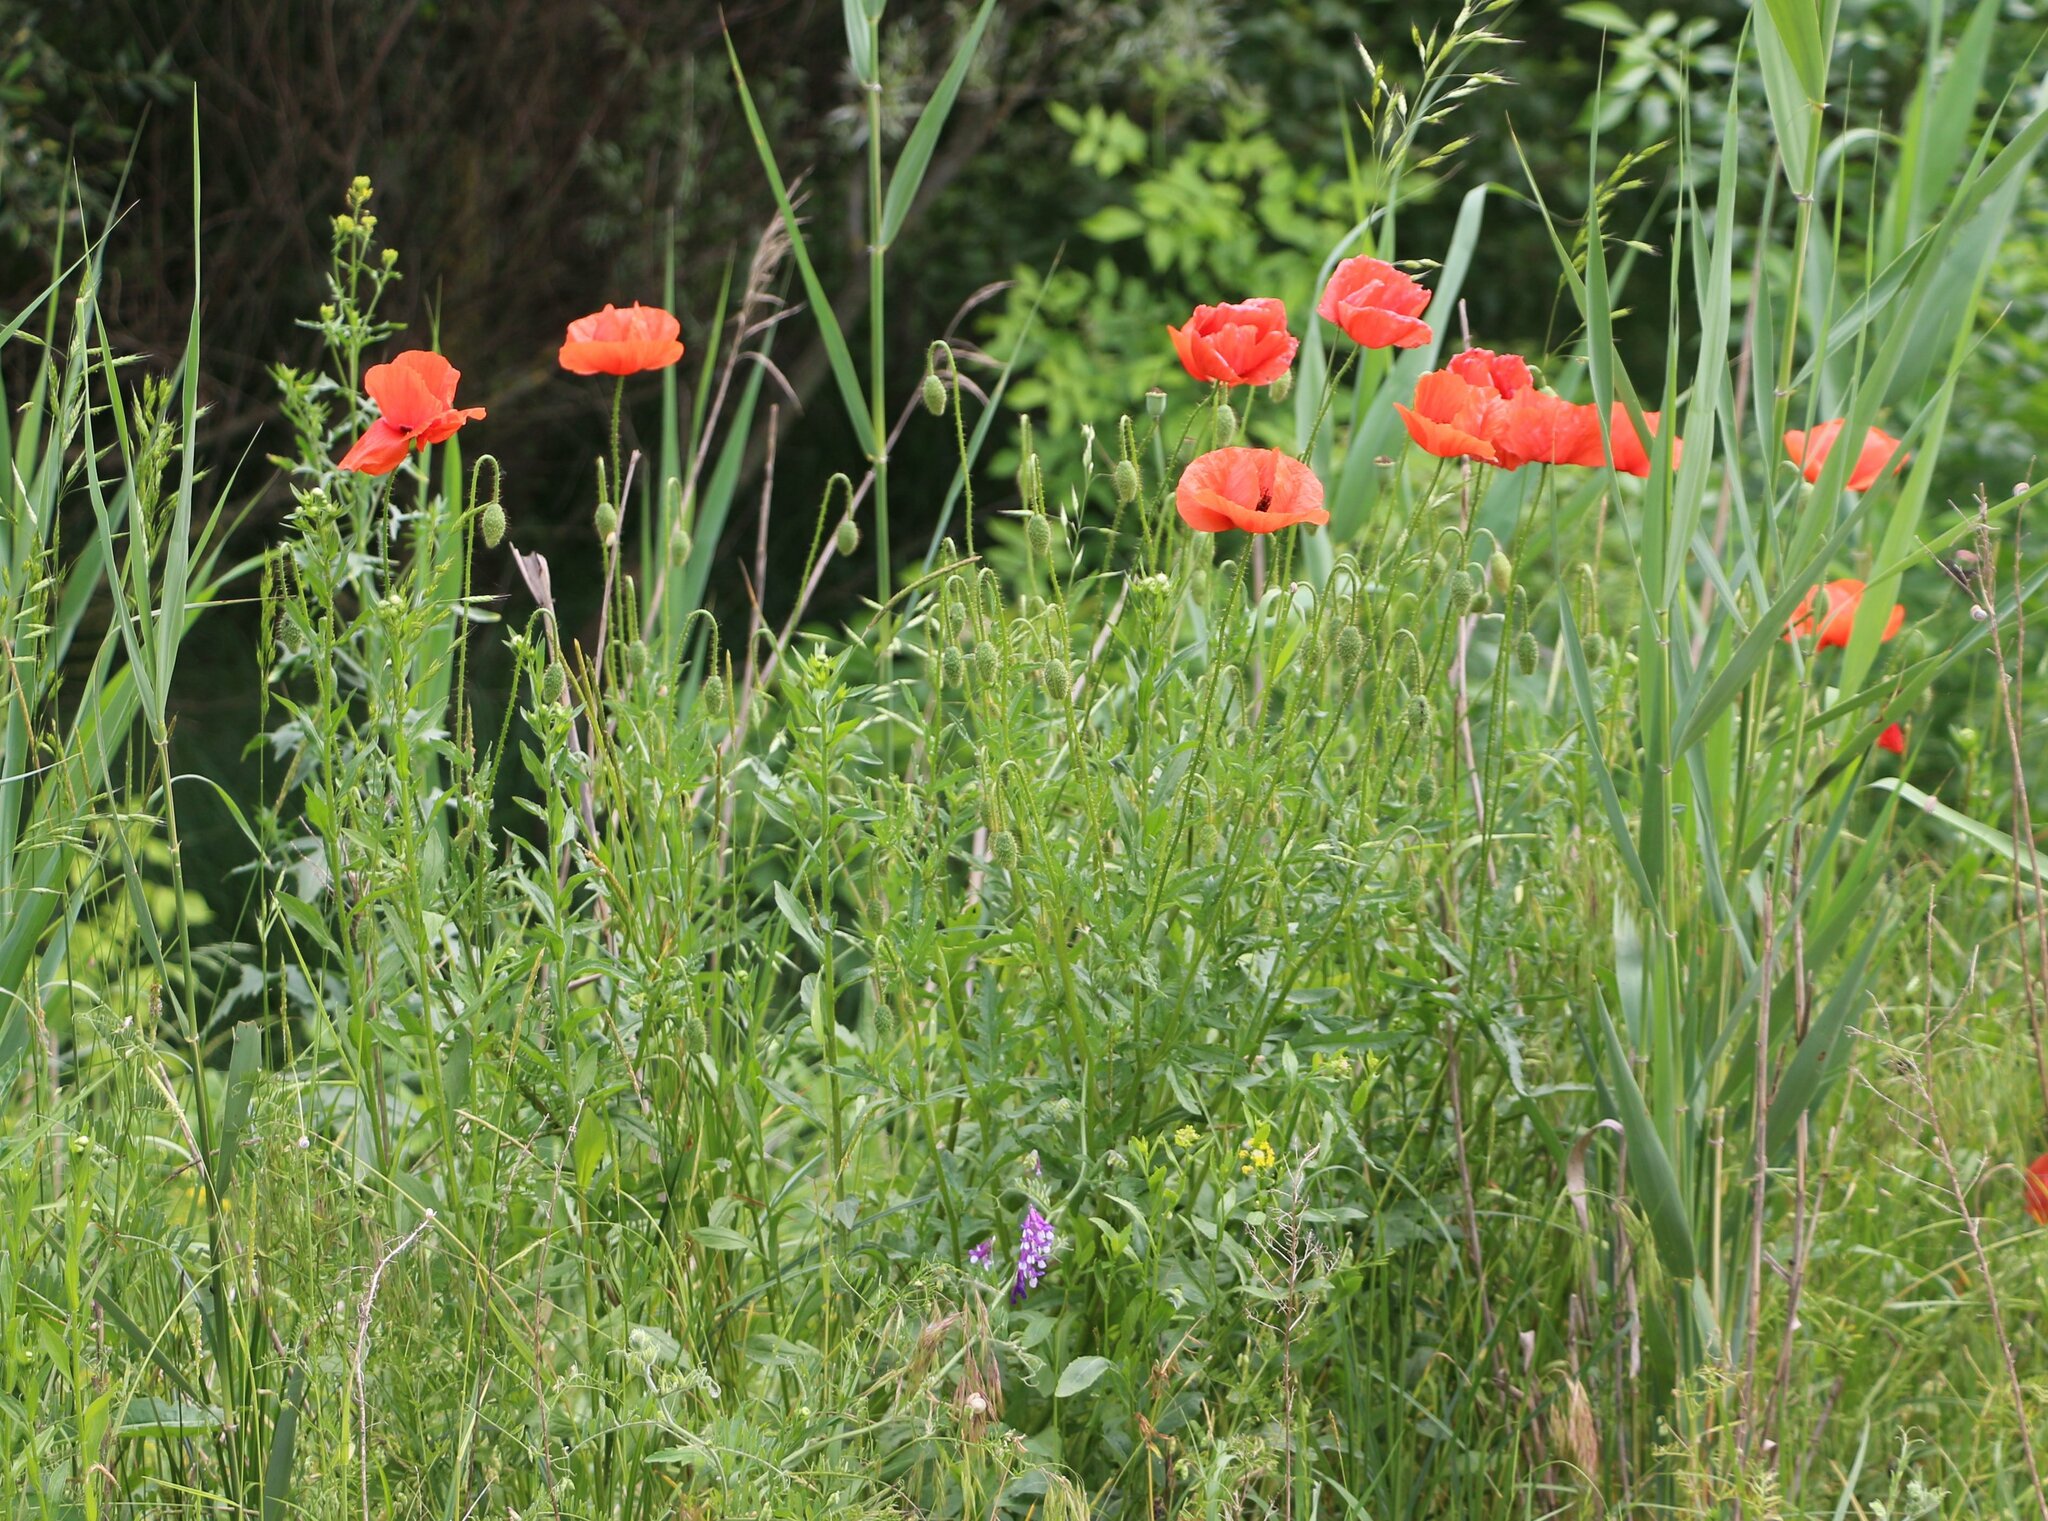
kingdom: Plantae
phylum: Tracheophyta
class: Magnoliopsida
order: Ranunculales
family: Papaveraceae
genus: Papaver
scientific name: Papaver rhoeas
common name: Corn poppy
